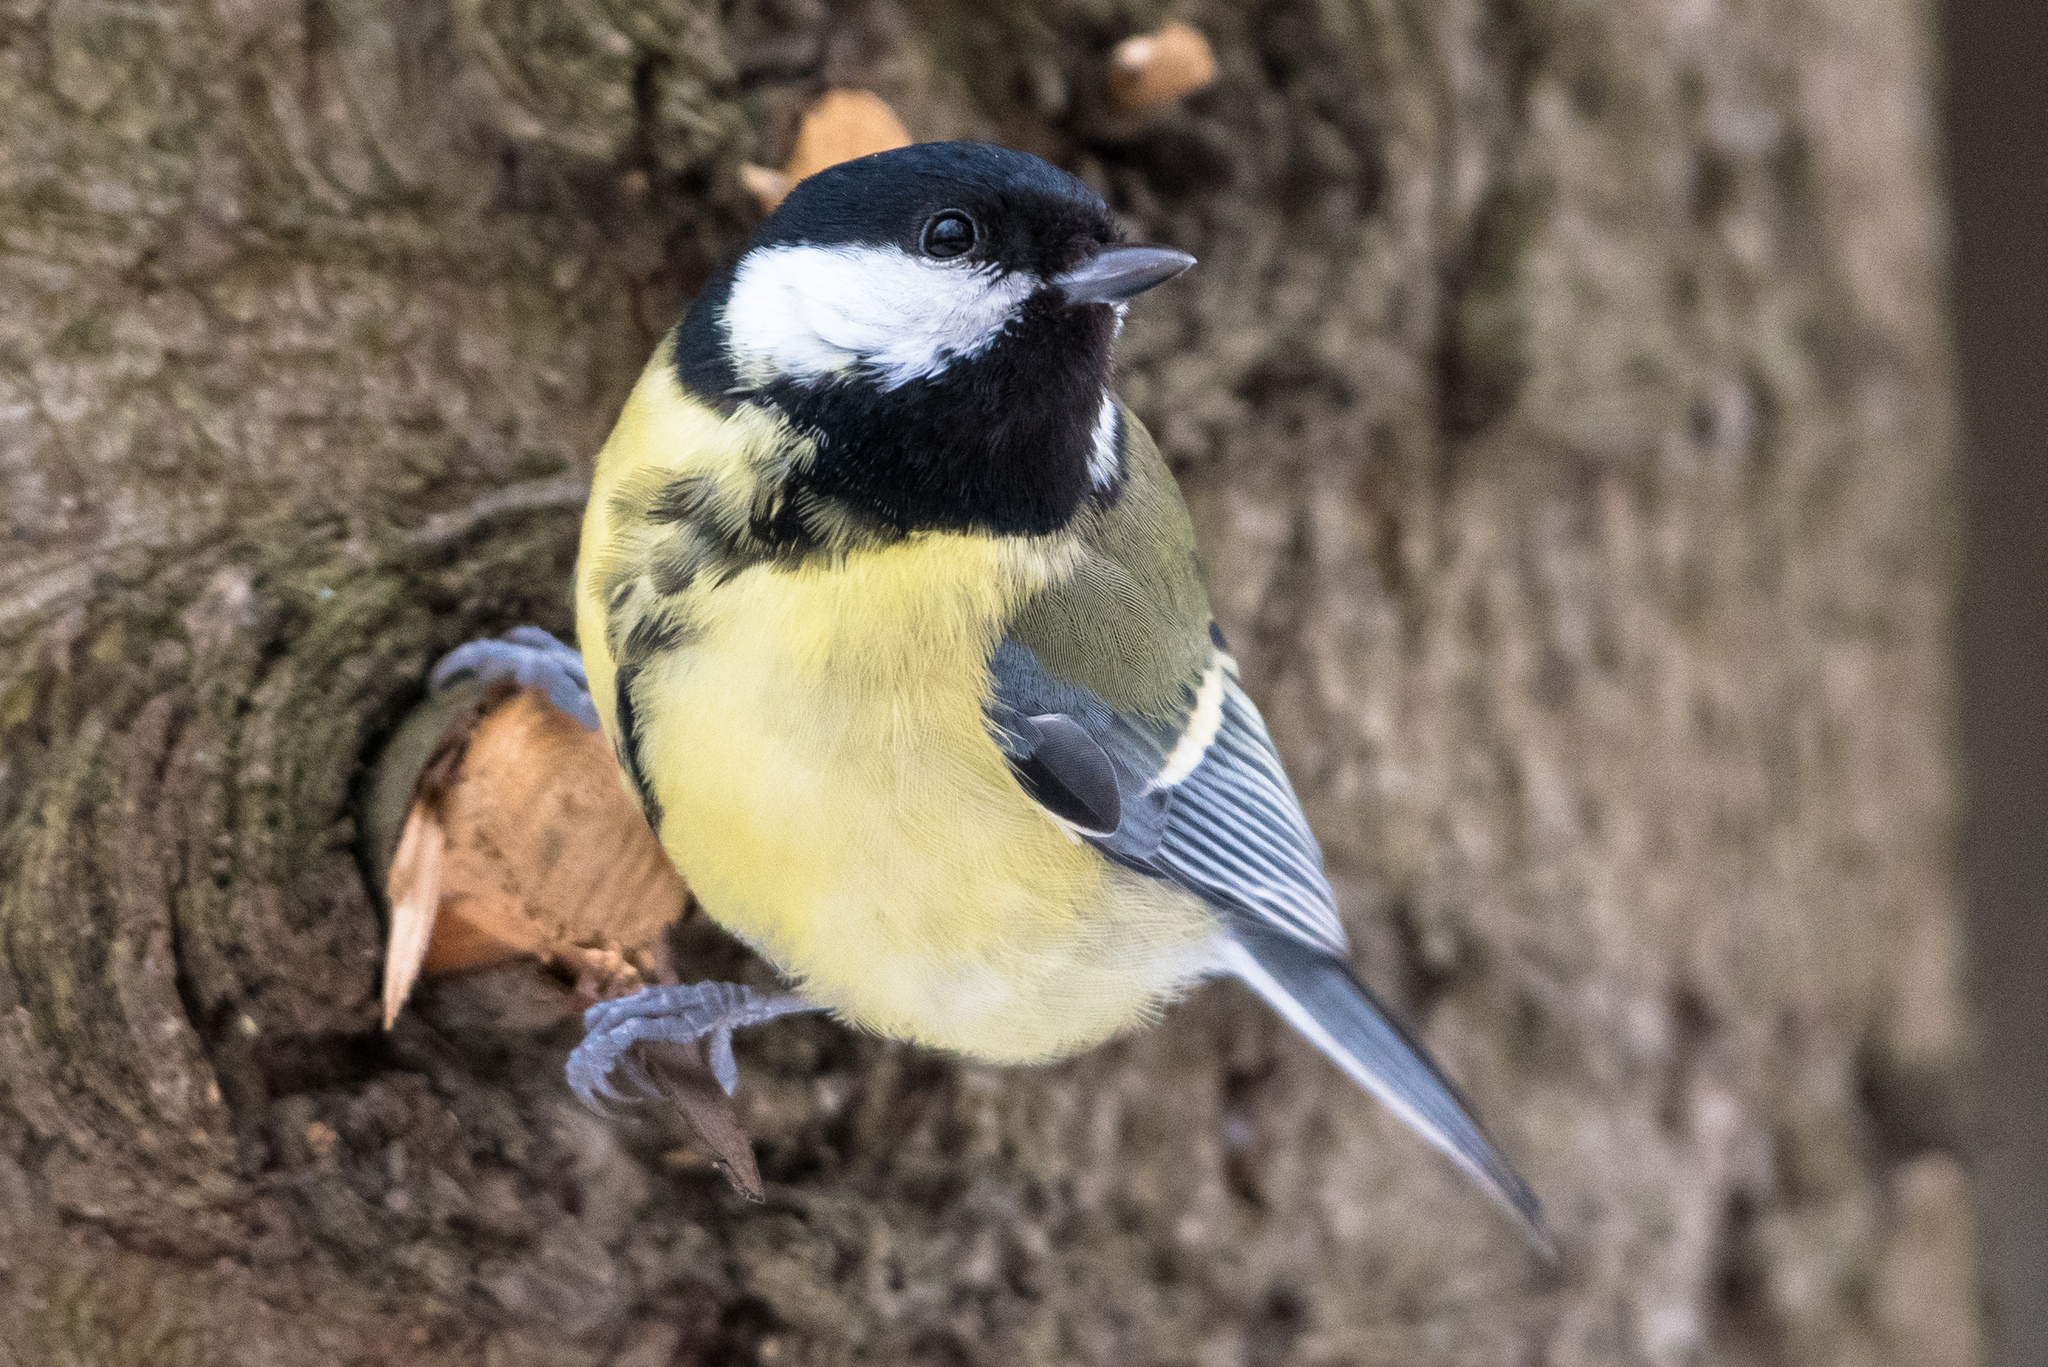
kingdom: Animalia
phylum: Chordata
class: Aves
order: Passeriformes
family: Paridae
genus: Parus
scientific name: Parus major
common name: Great tit
